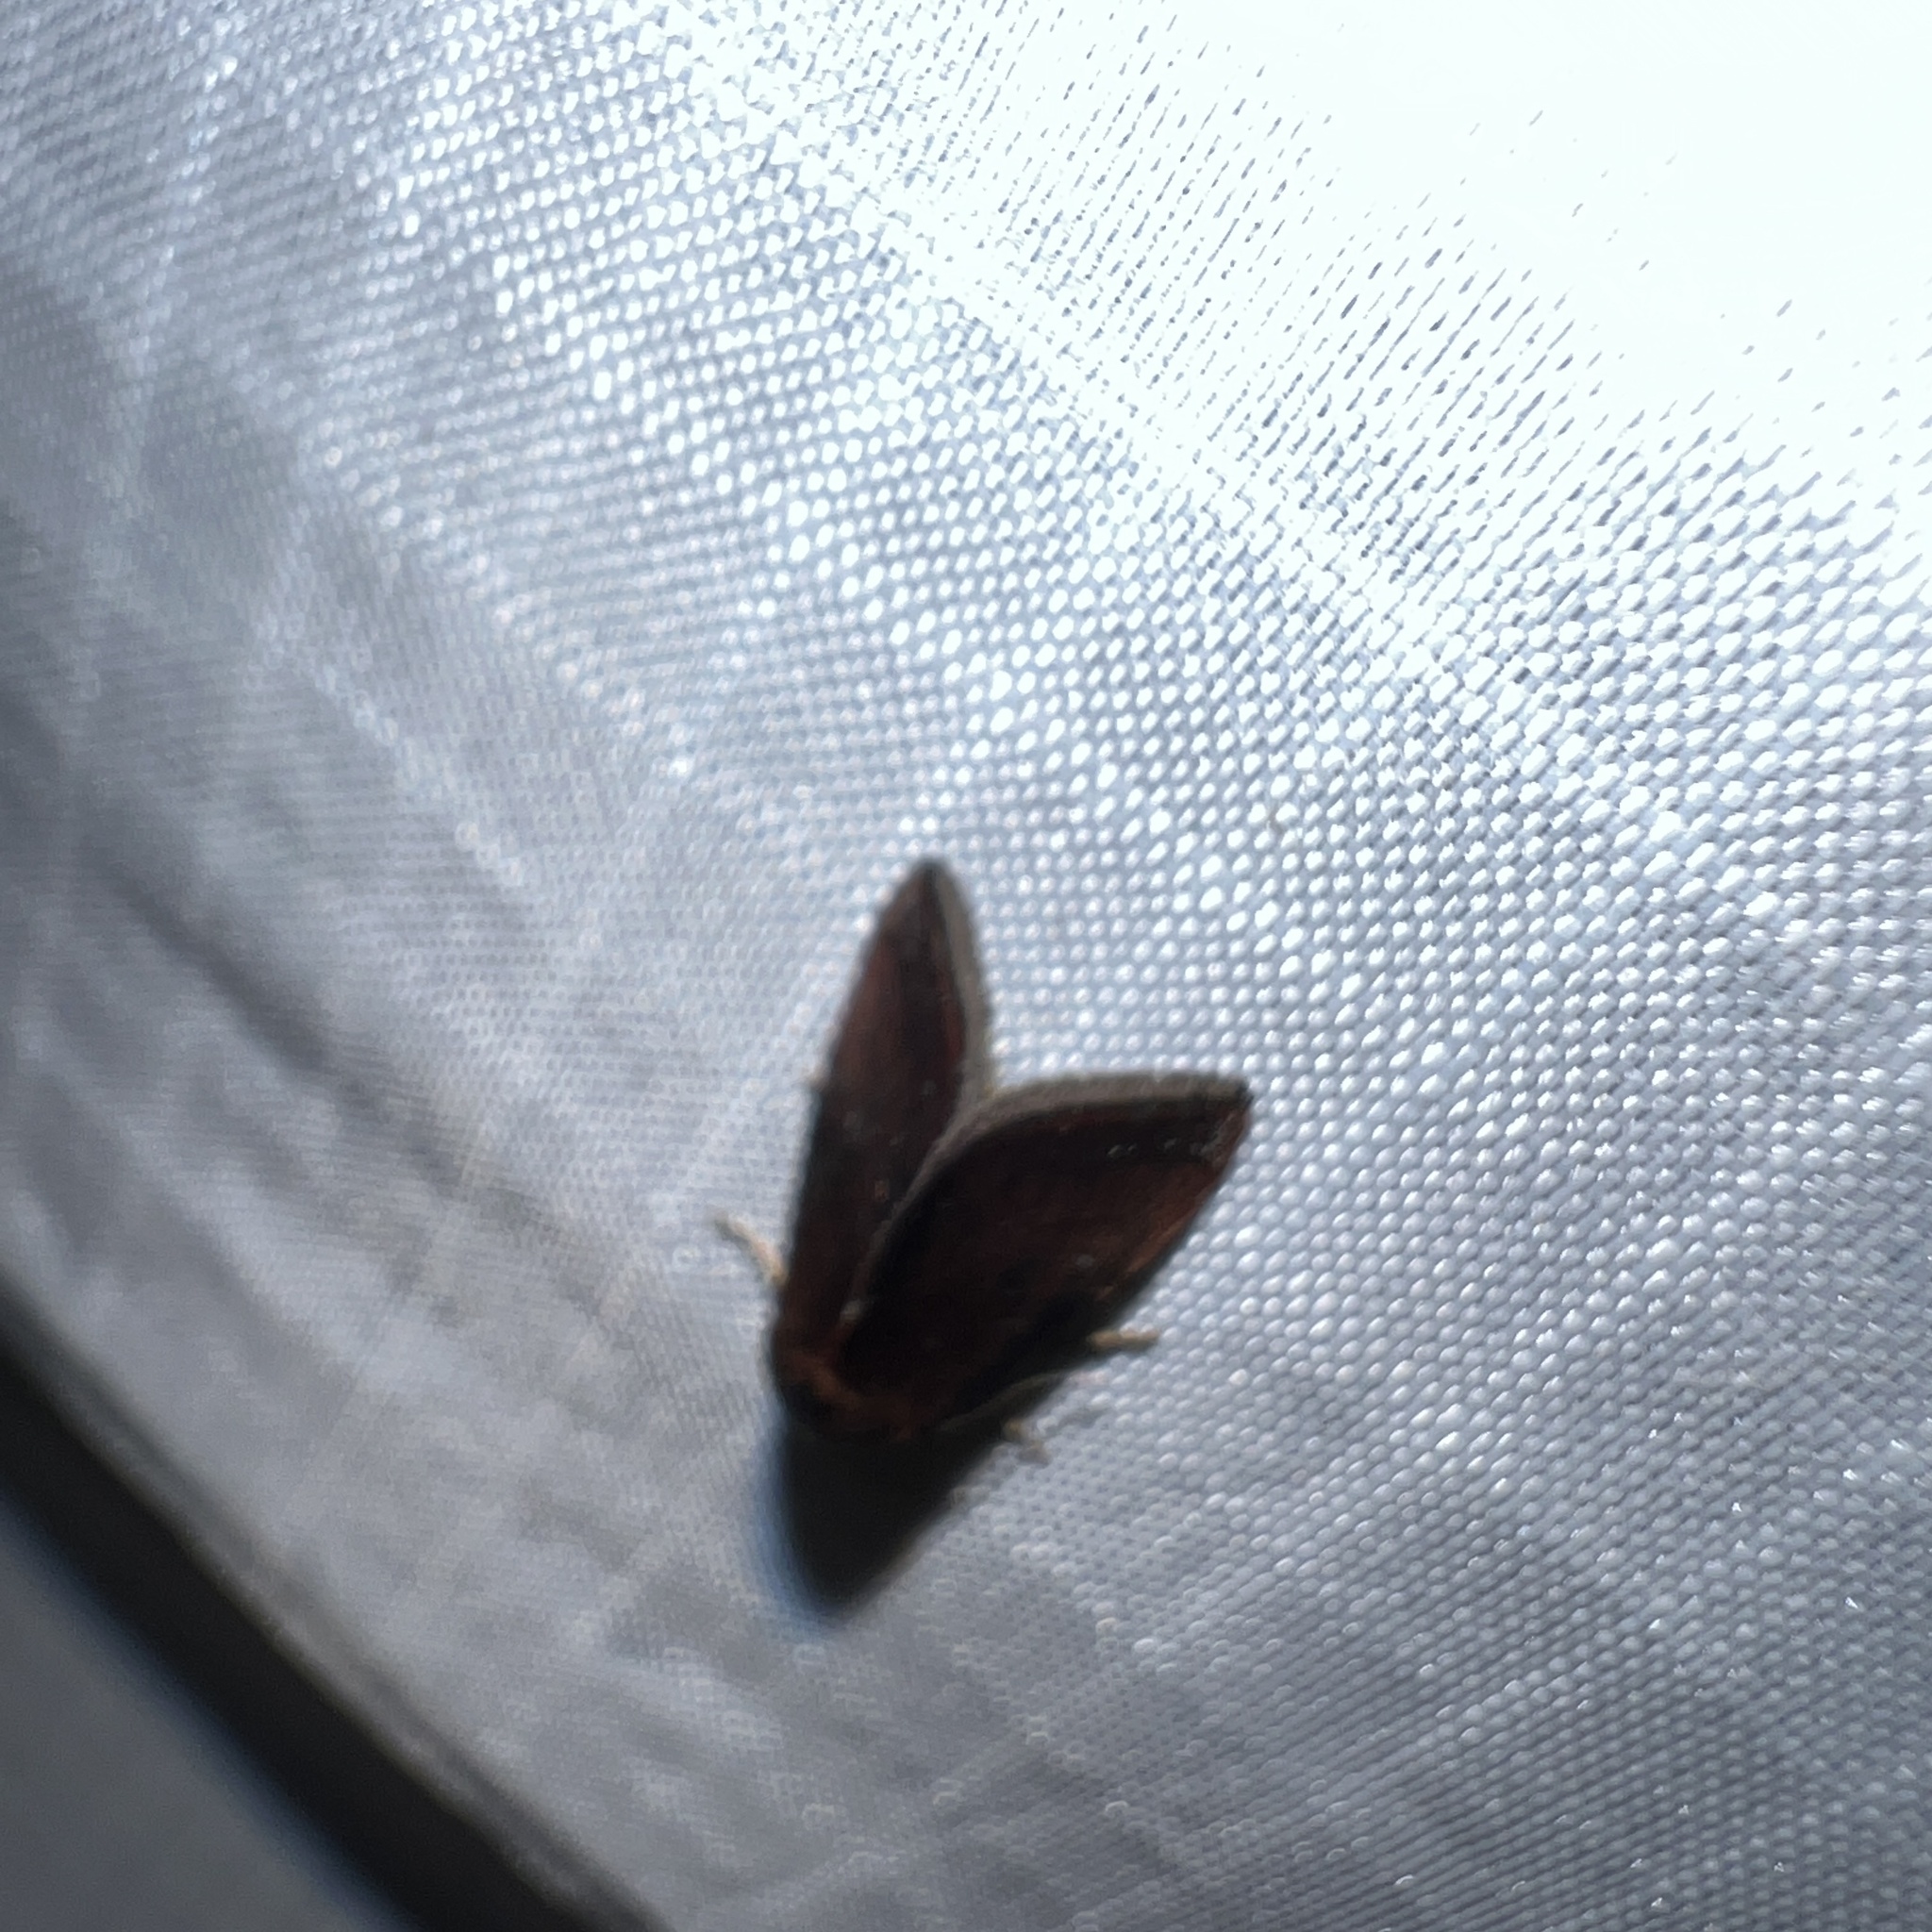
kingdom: Animalia
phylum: Arthropoda
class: Insecta
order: Lepidoptera
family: Noctuidae
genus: Galgula
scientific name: Galgula partita
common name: Wedgeling
